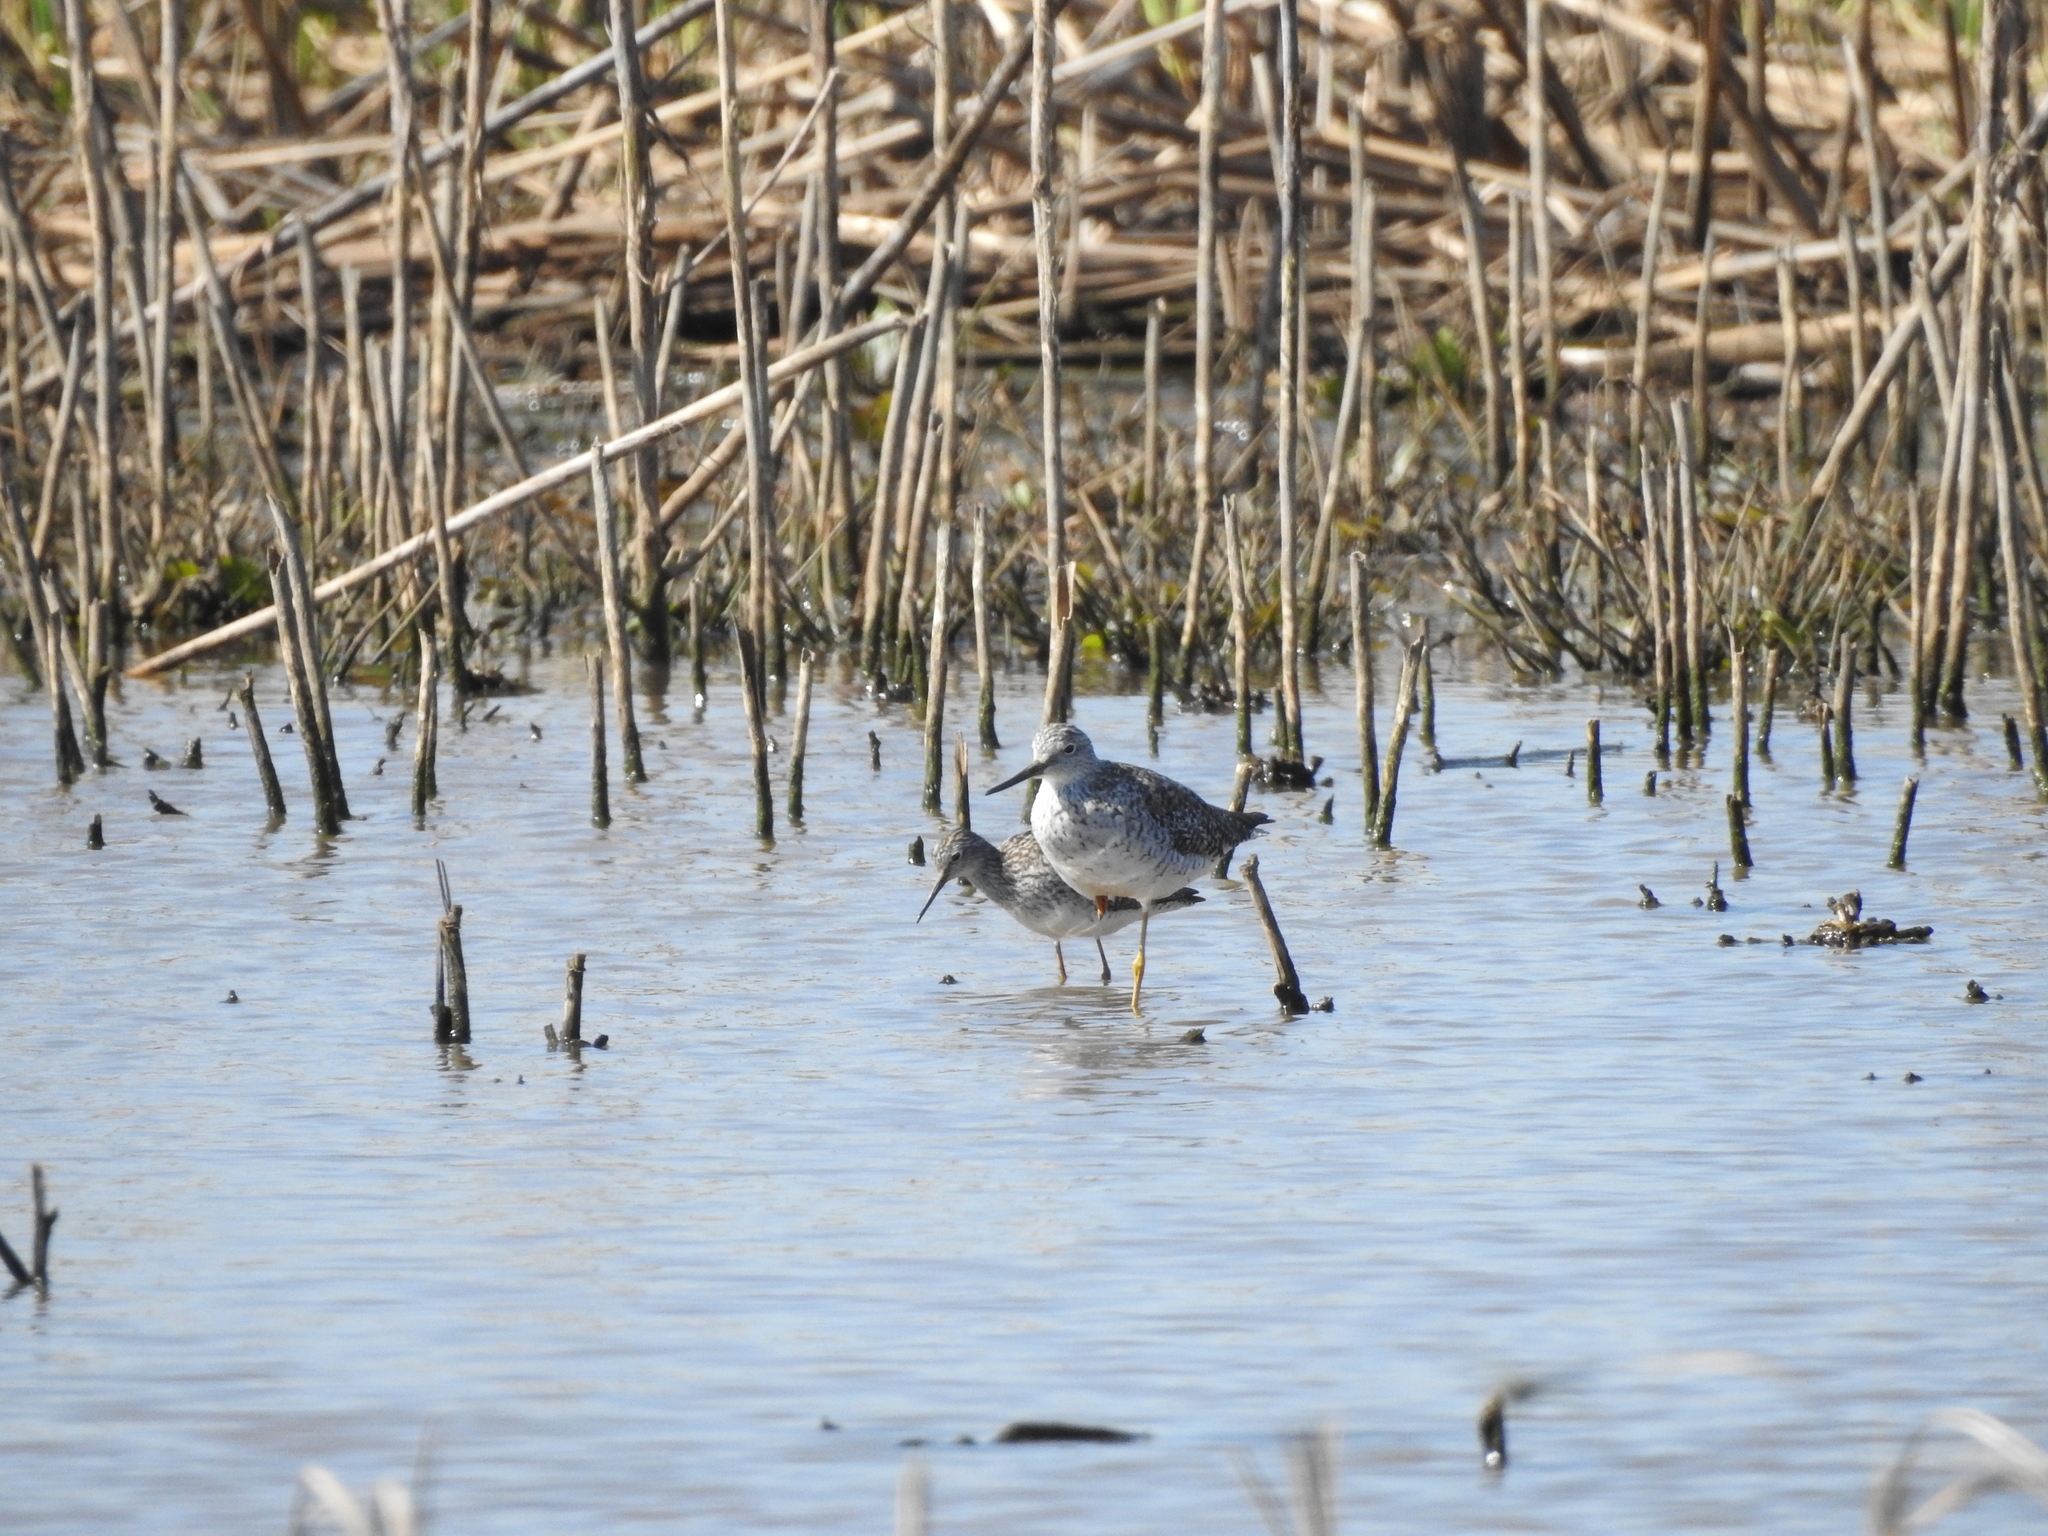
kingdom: Animalia
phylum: Chordata
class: Aves
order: Charadriiformes
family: Scolopacidae
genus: Tringa
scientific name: Tringa melanoleuca
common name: Greater yellowlegs
